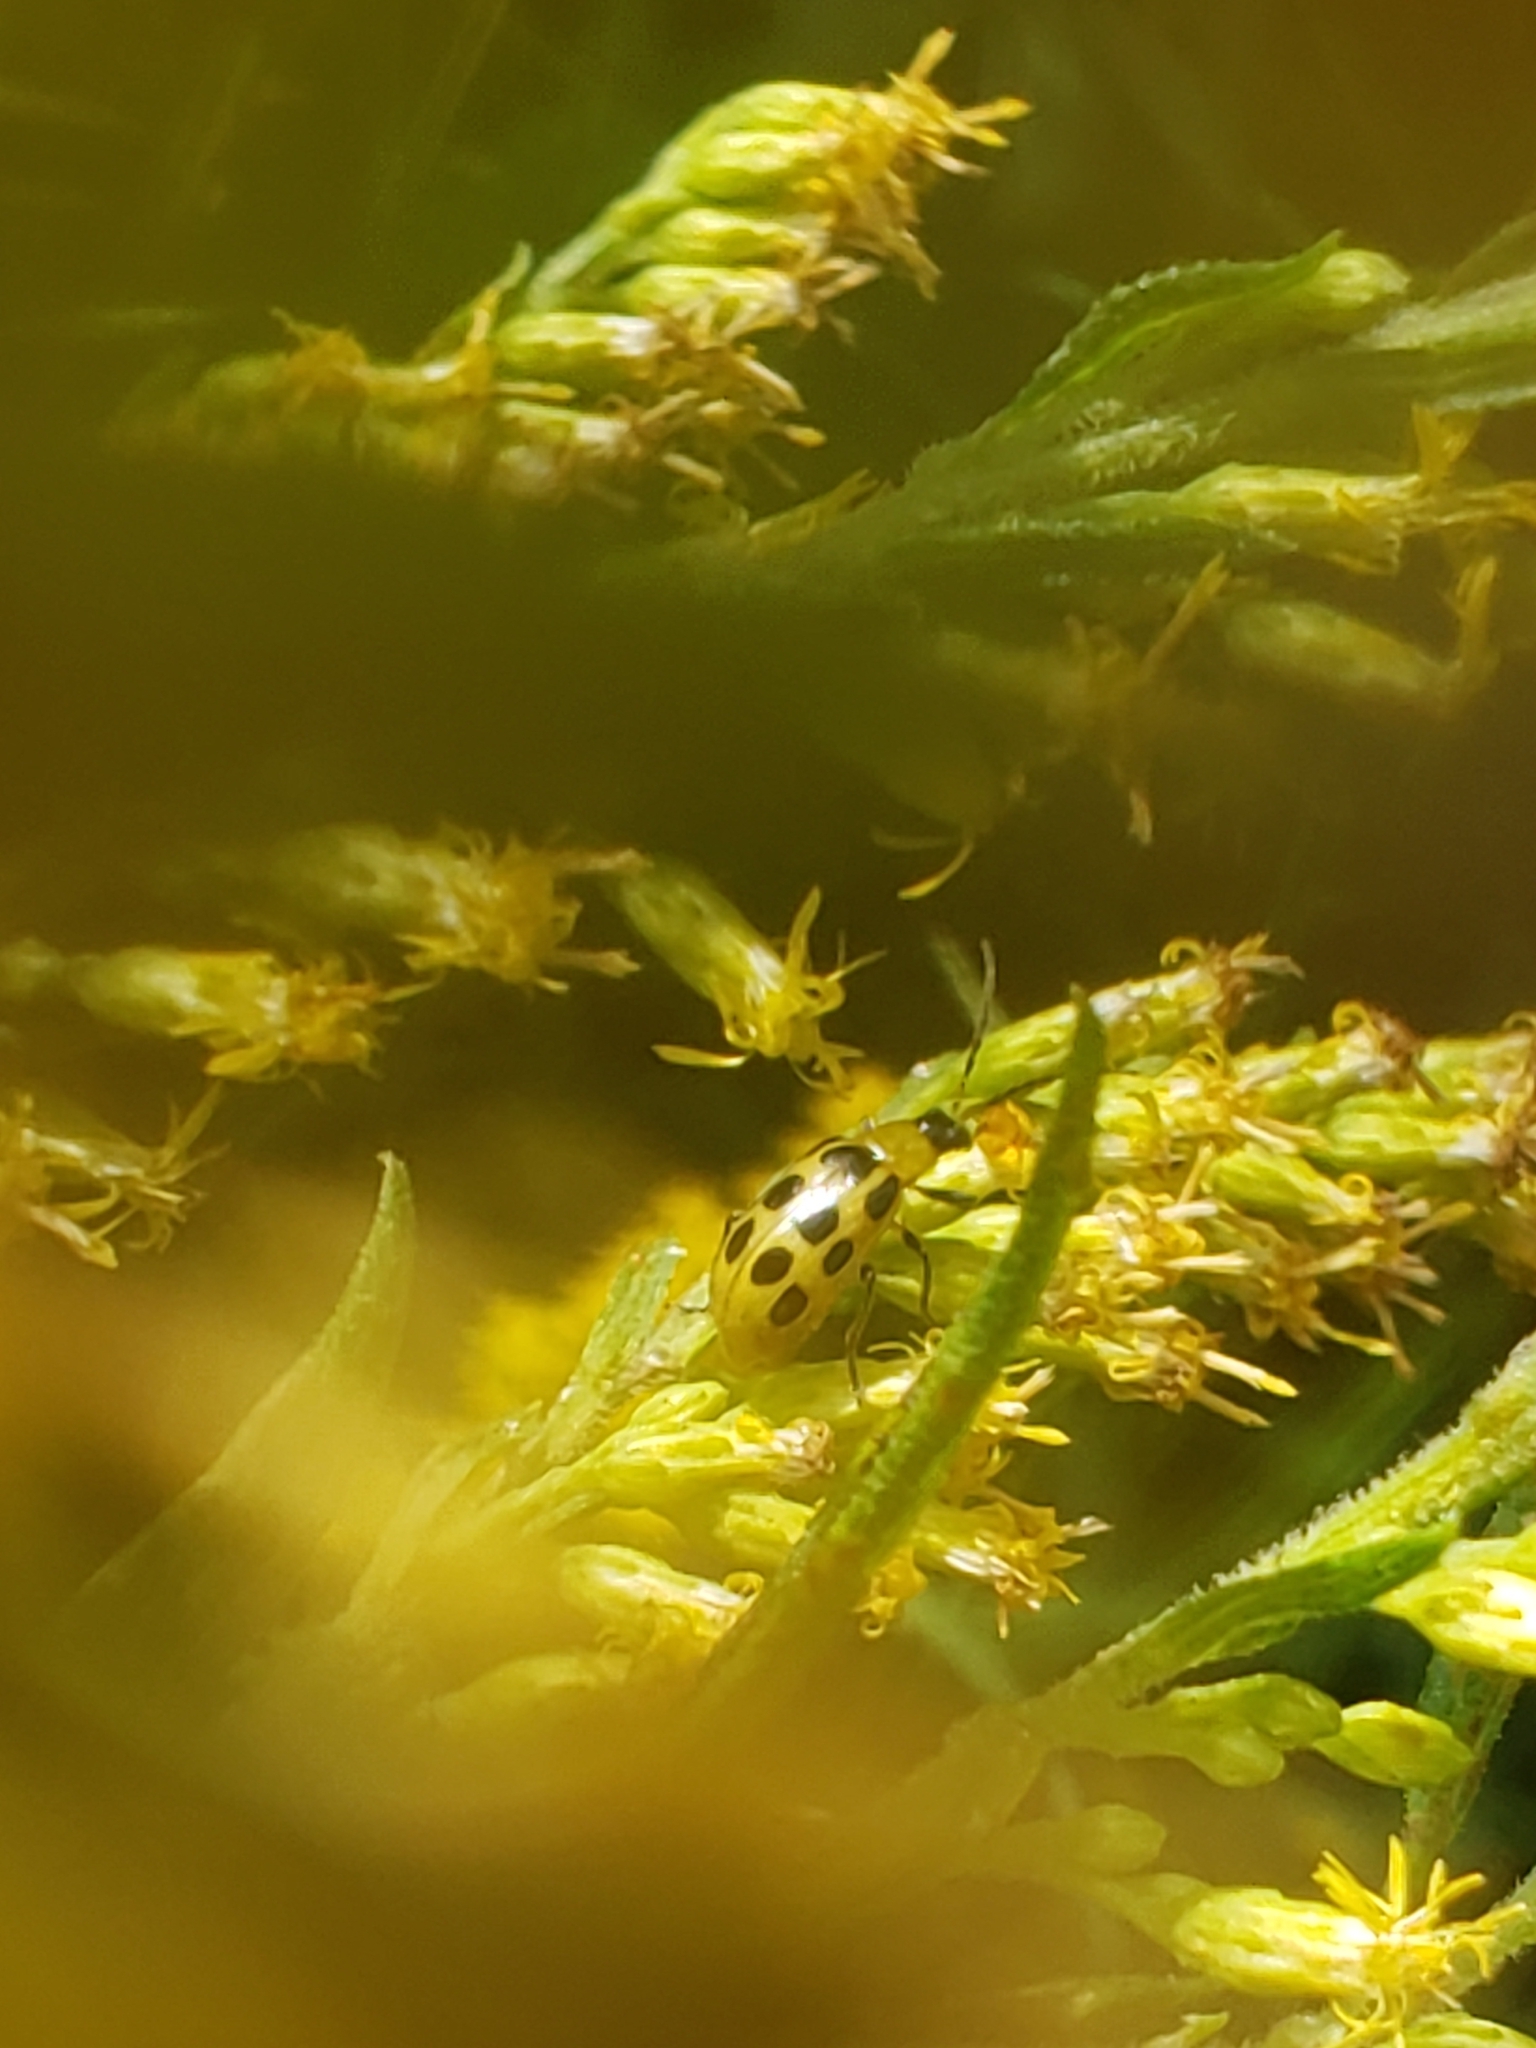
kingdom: Animalia
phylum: Arthropoda
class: Insecta
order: Coleoptera
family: Chrysomelidae
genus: Diabrotica
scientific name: Diabrotica undecimpunctata
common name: Spotted cucumber beetle
